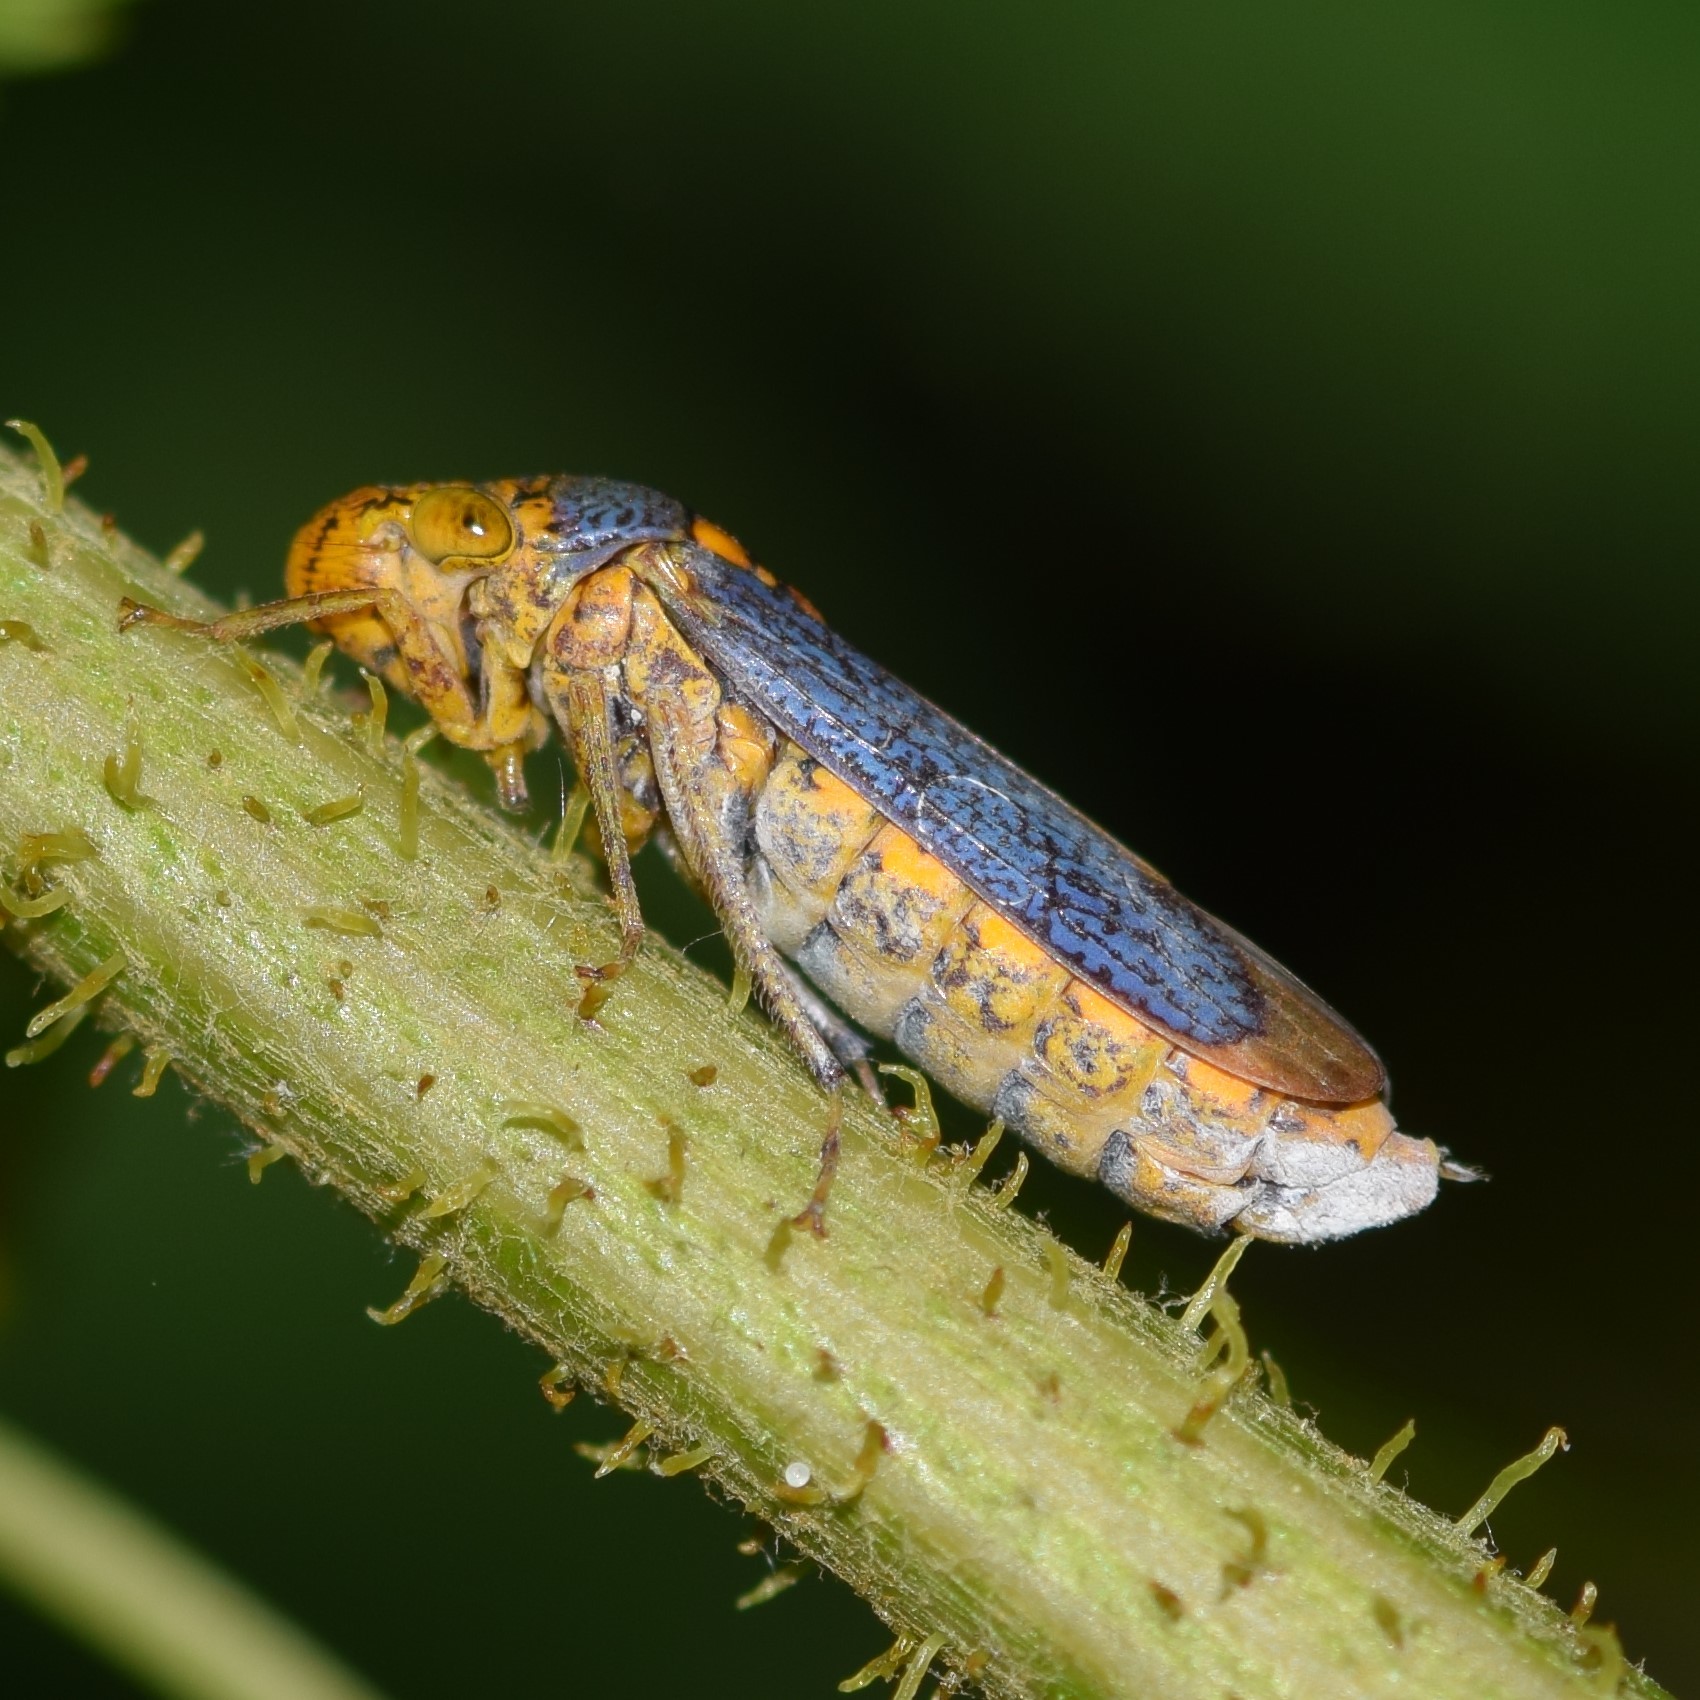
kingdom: Animalia
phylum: Arthropoda
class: Insecta
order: Hemiptera
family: Cicadellidae
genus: Oncometopia
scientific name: Oncometopia orbona
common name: Broad-headed sharpshooter
